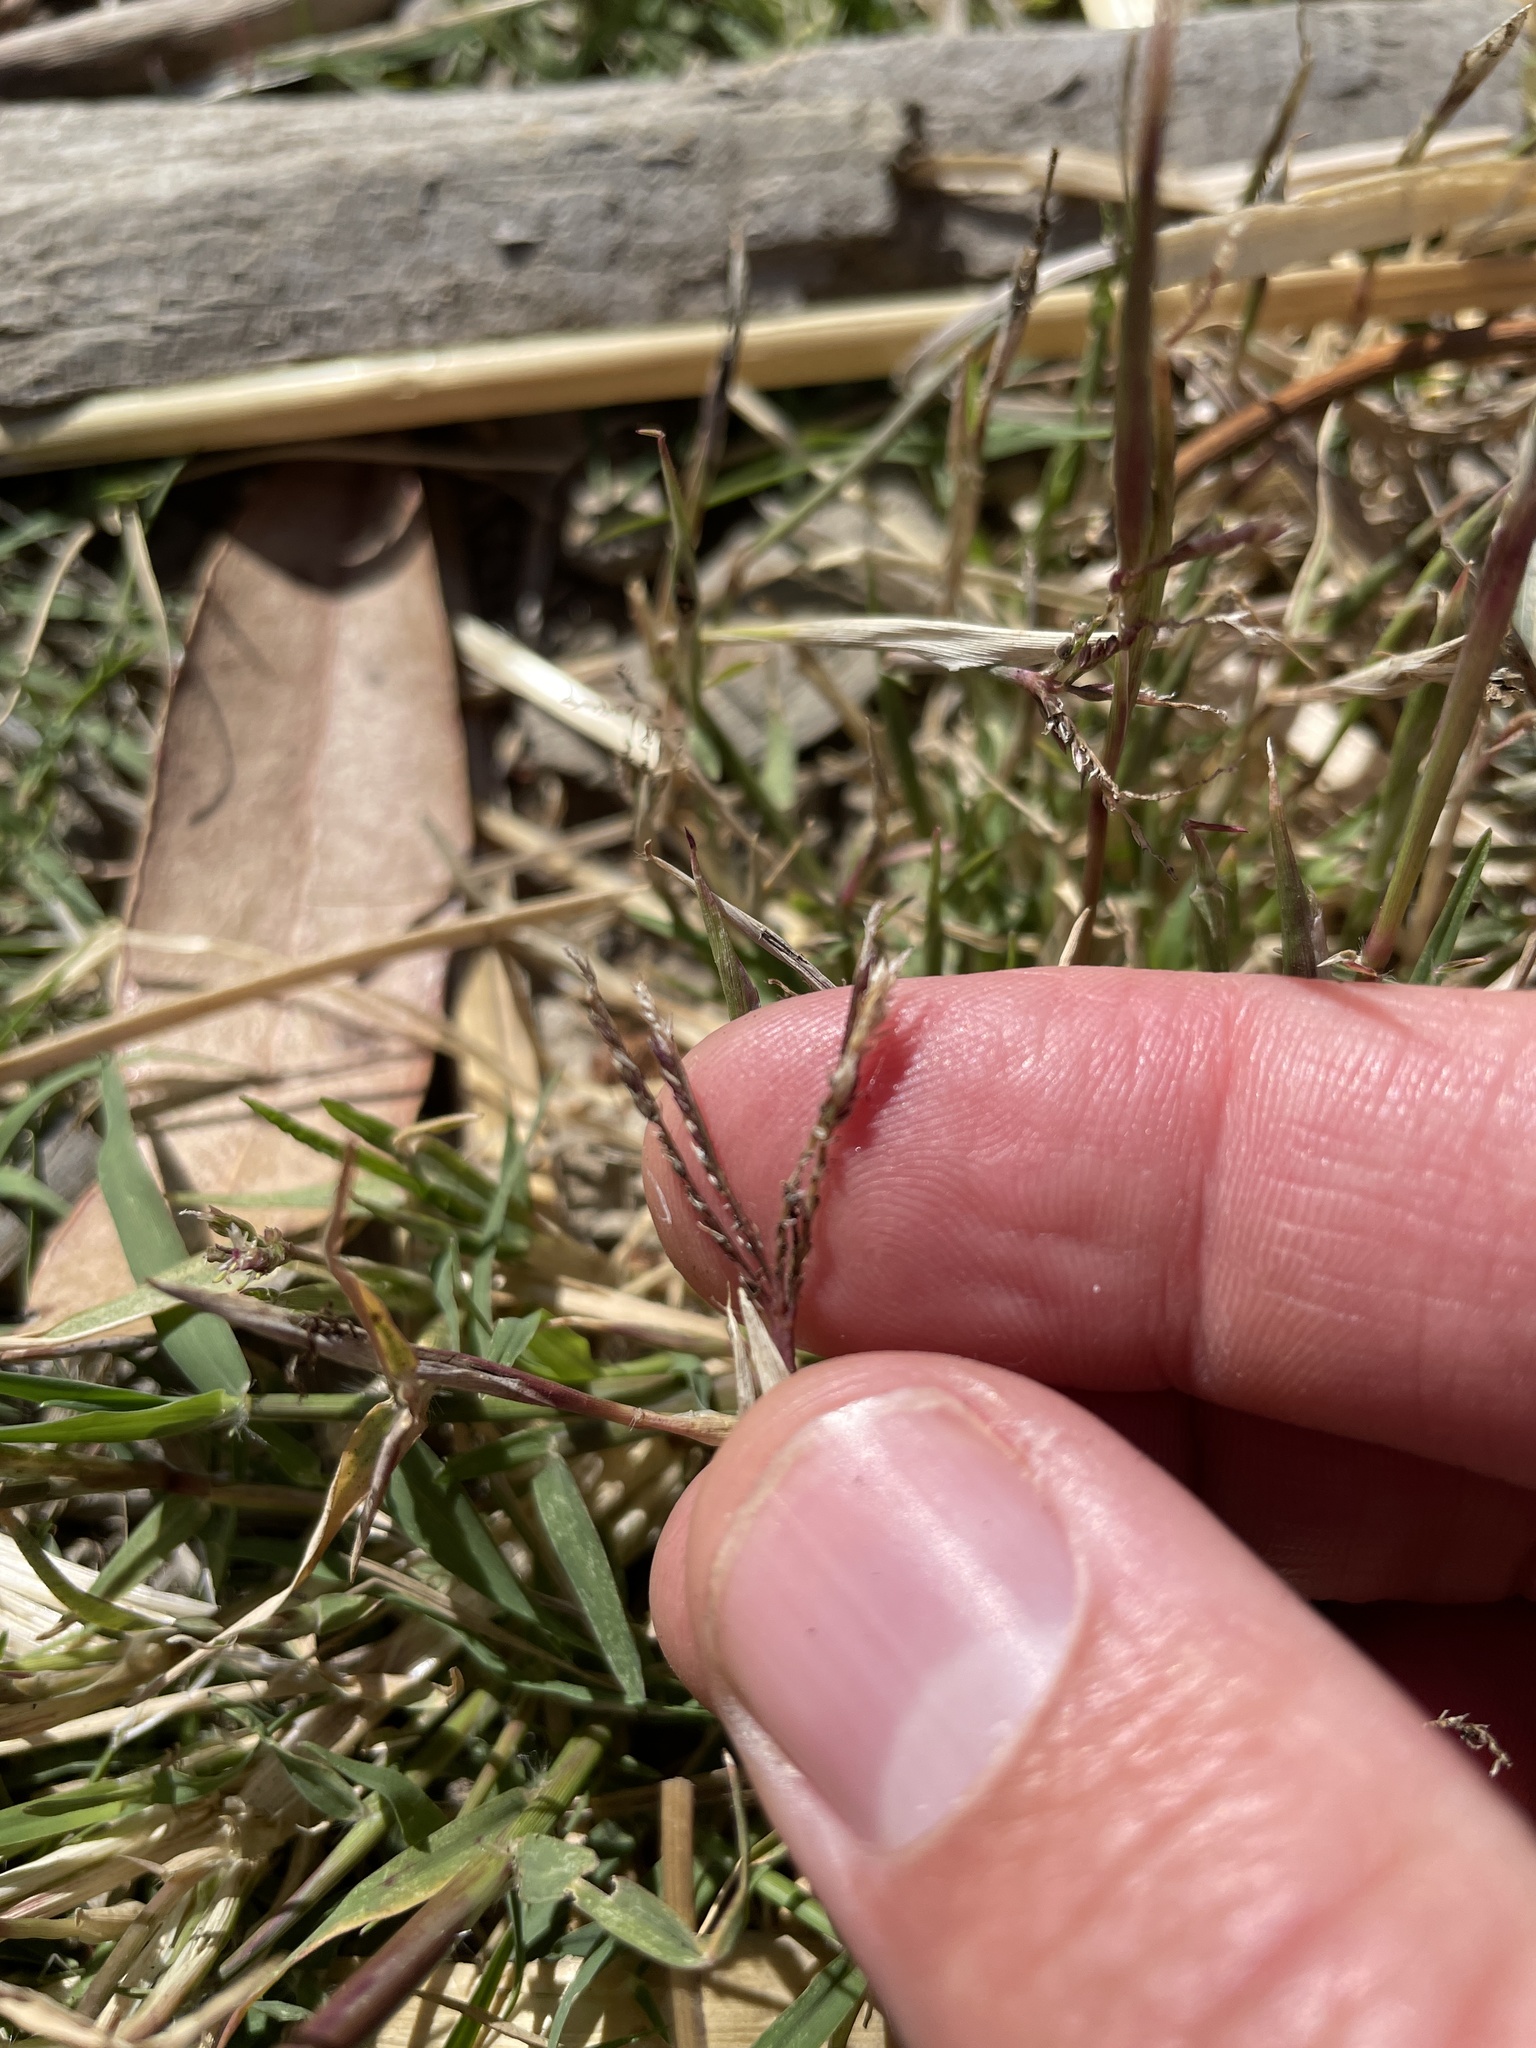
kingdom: Fungi
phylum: Basidiomycota
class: Ustilaginomycetes
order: Ustilaginales
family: Ustilaginaceae
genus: Ustilago
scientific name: Ustilago cynodontis
